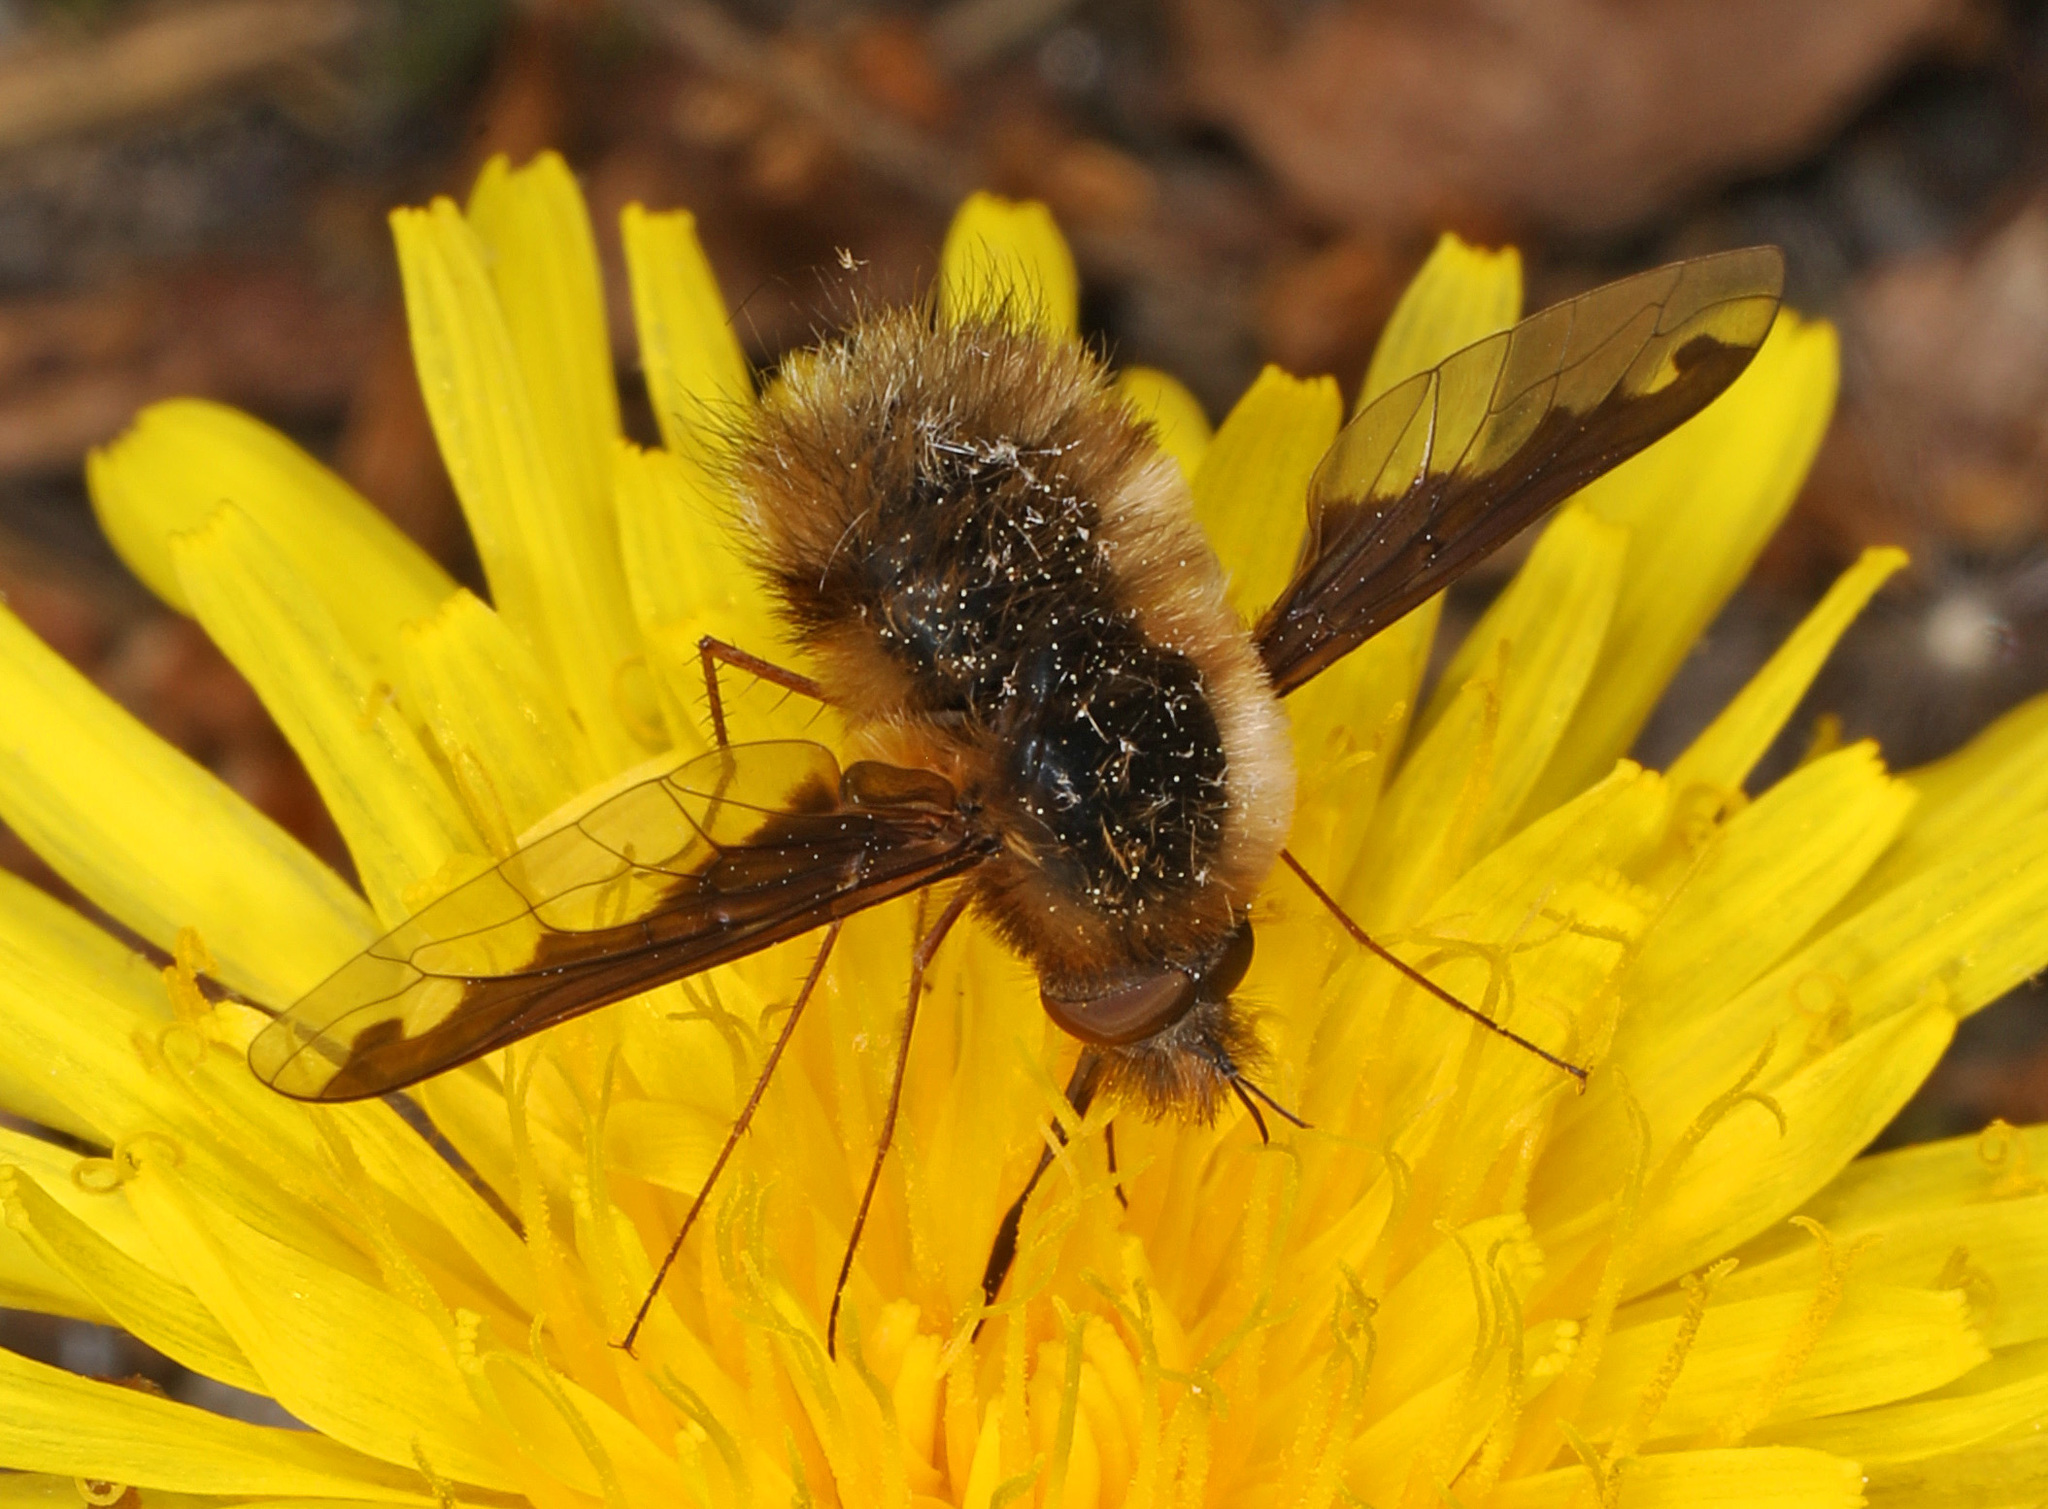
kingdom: Animalia
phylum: Arthropoda
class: Insecta
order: Diptera
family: Bombyliidae
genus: Bombylius
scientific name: Bombylius major
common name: Bee fly
